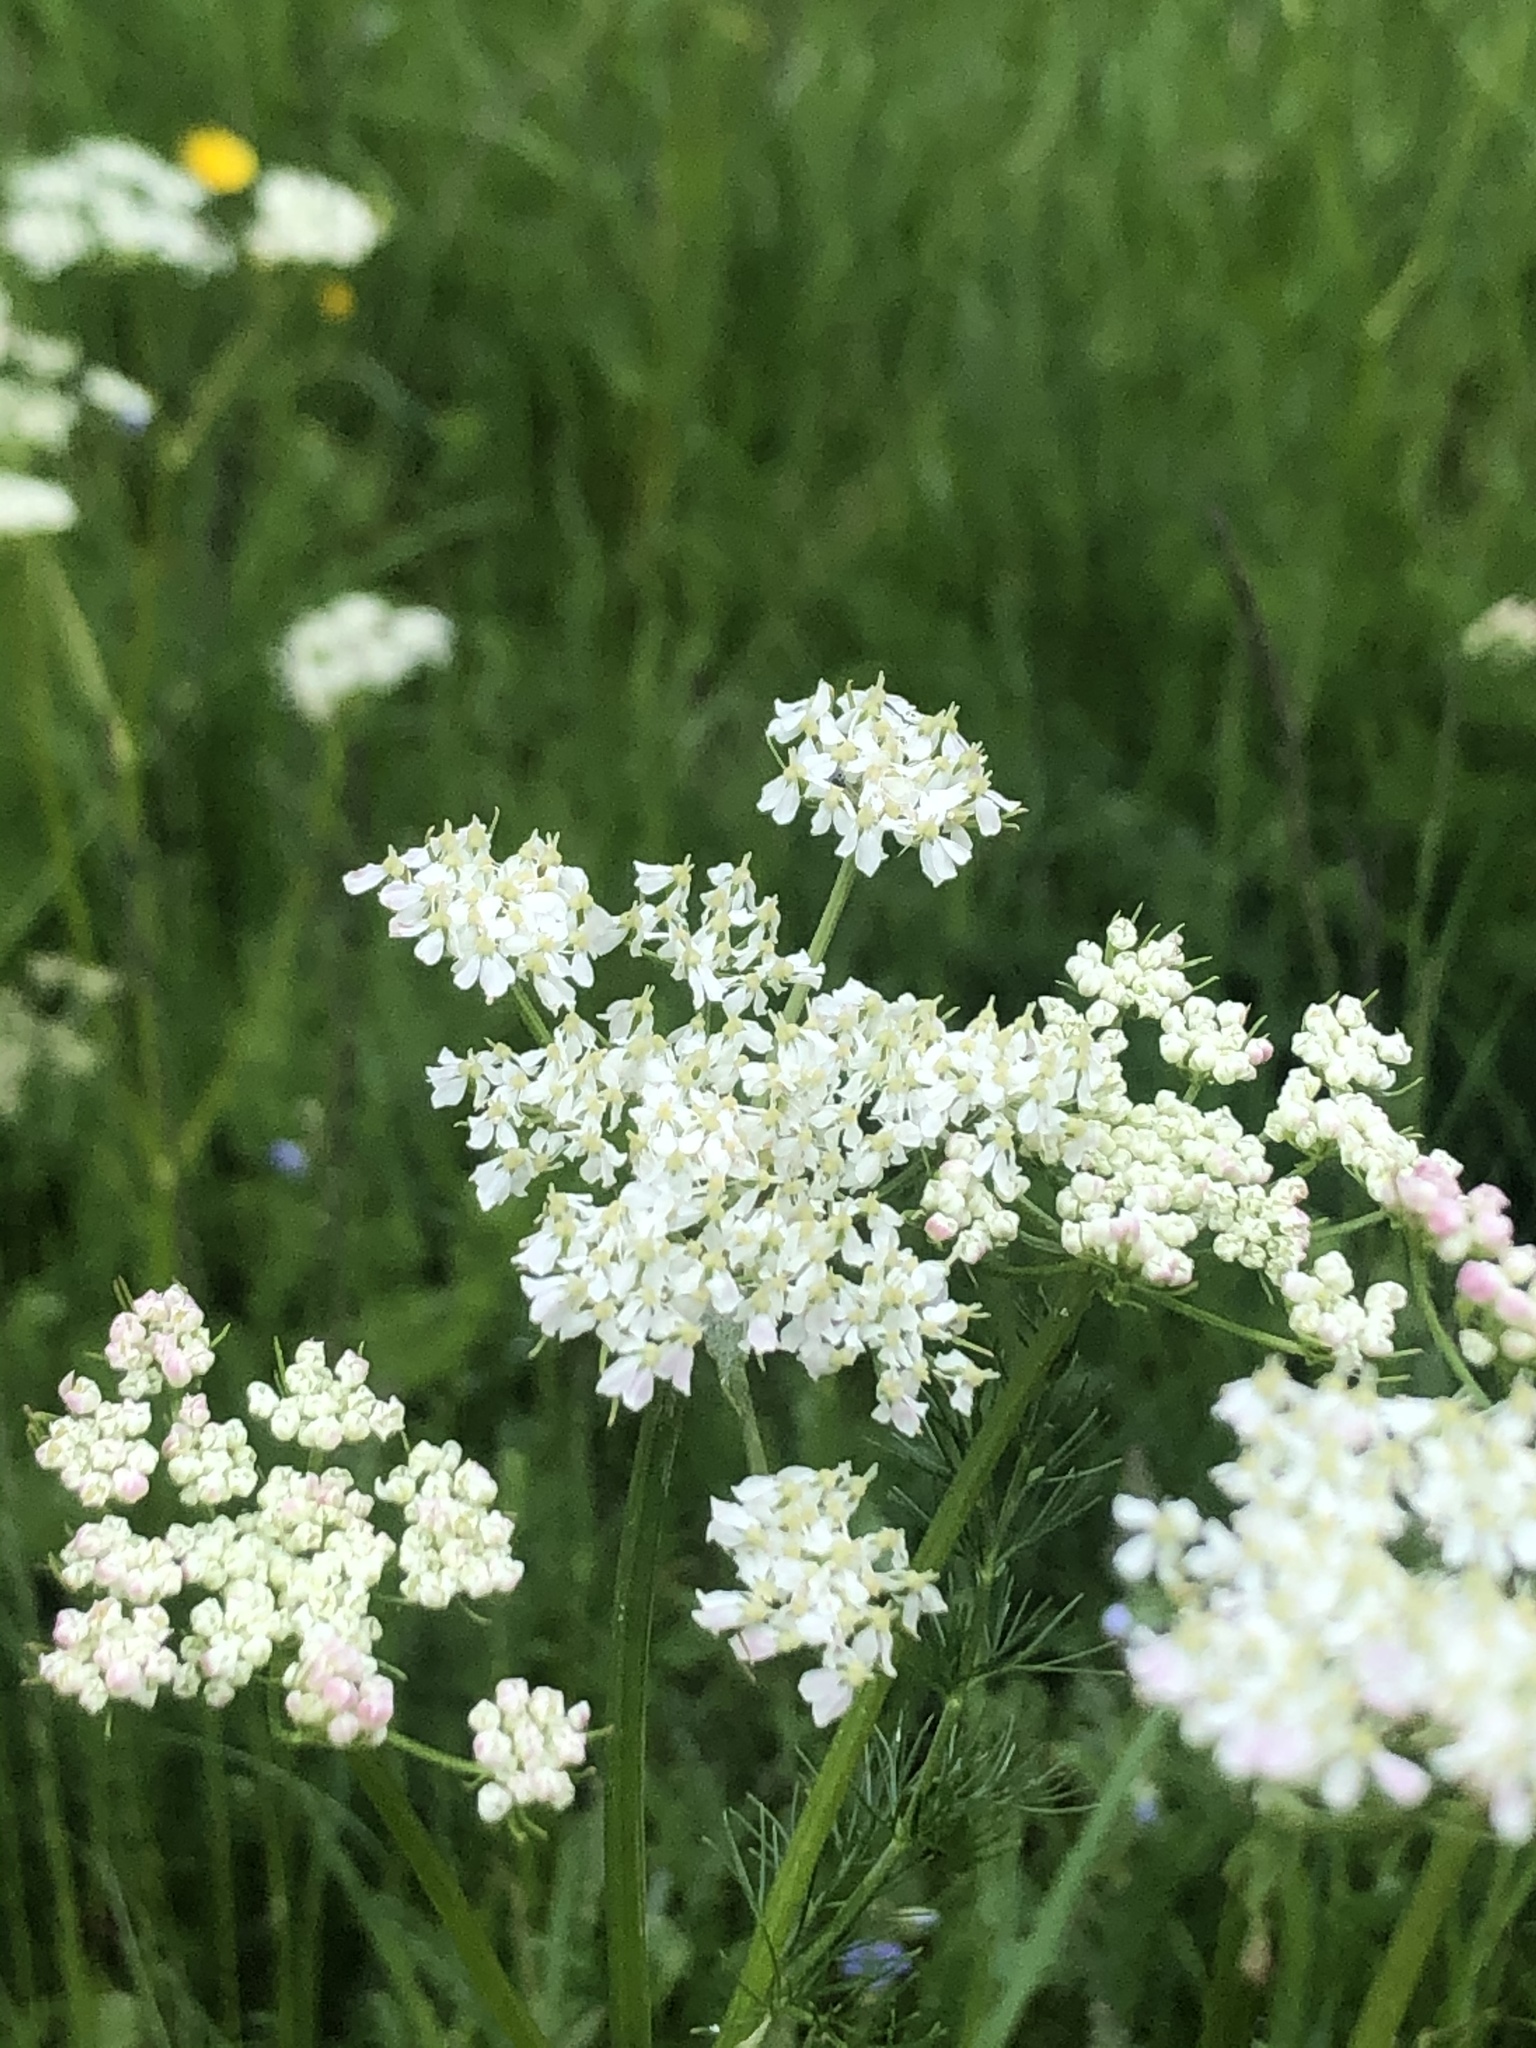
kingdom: Plantae
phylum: Tracheophyta
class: Magnoliopsida
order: Apiales
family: Apiaceae
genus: Meum
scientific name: Meum athamanticum
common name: Spignel
